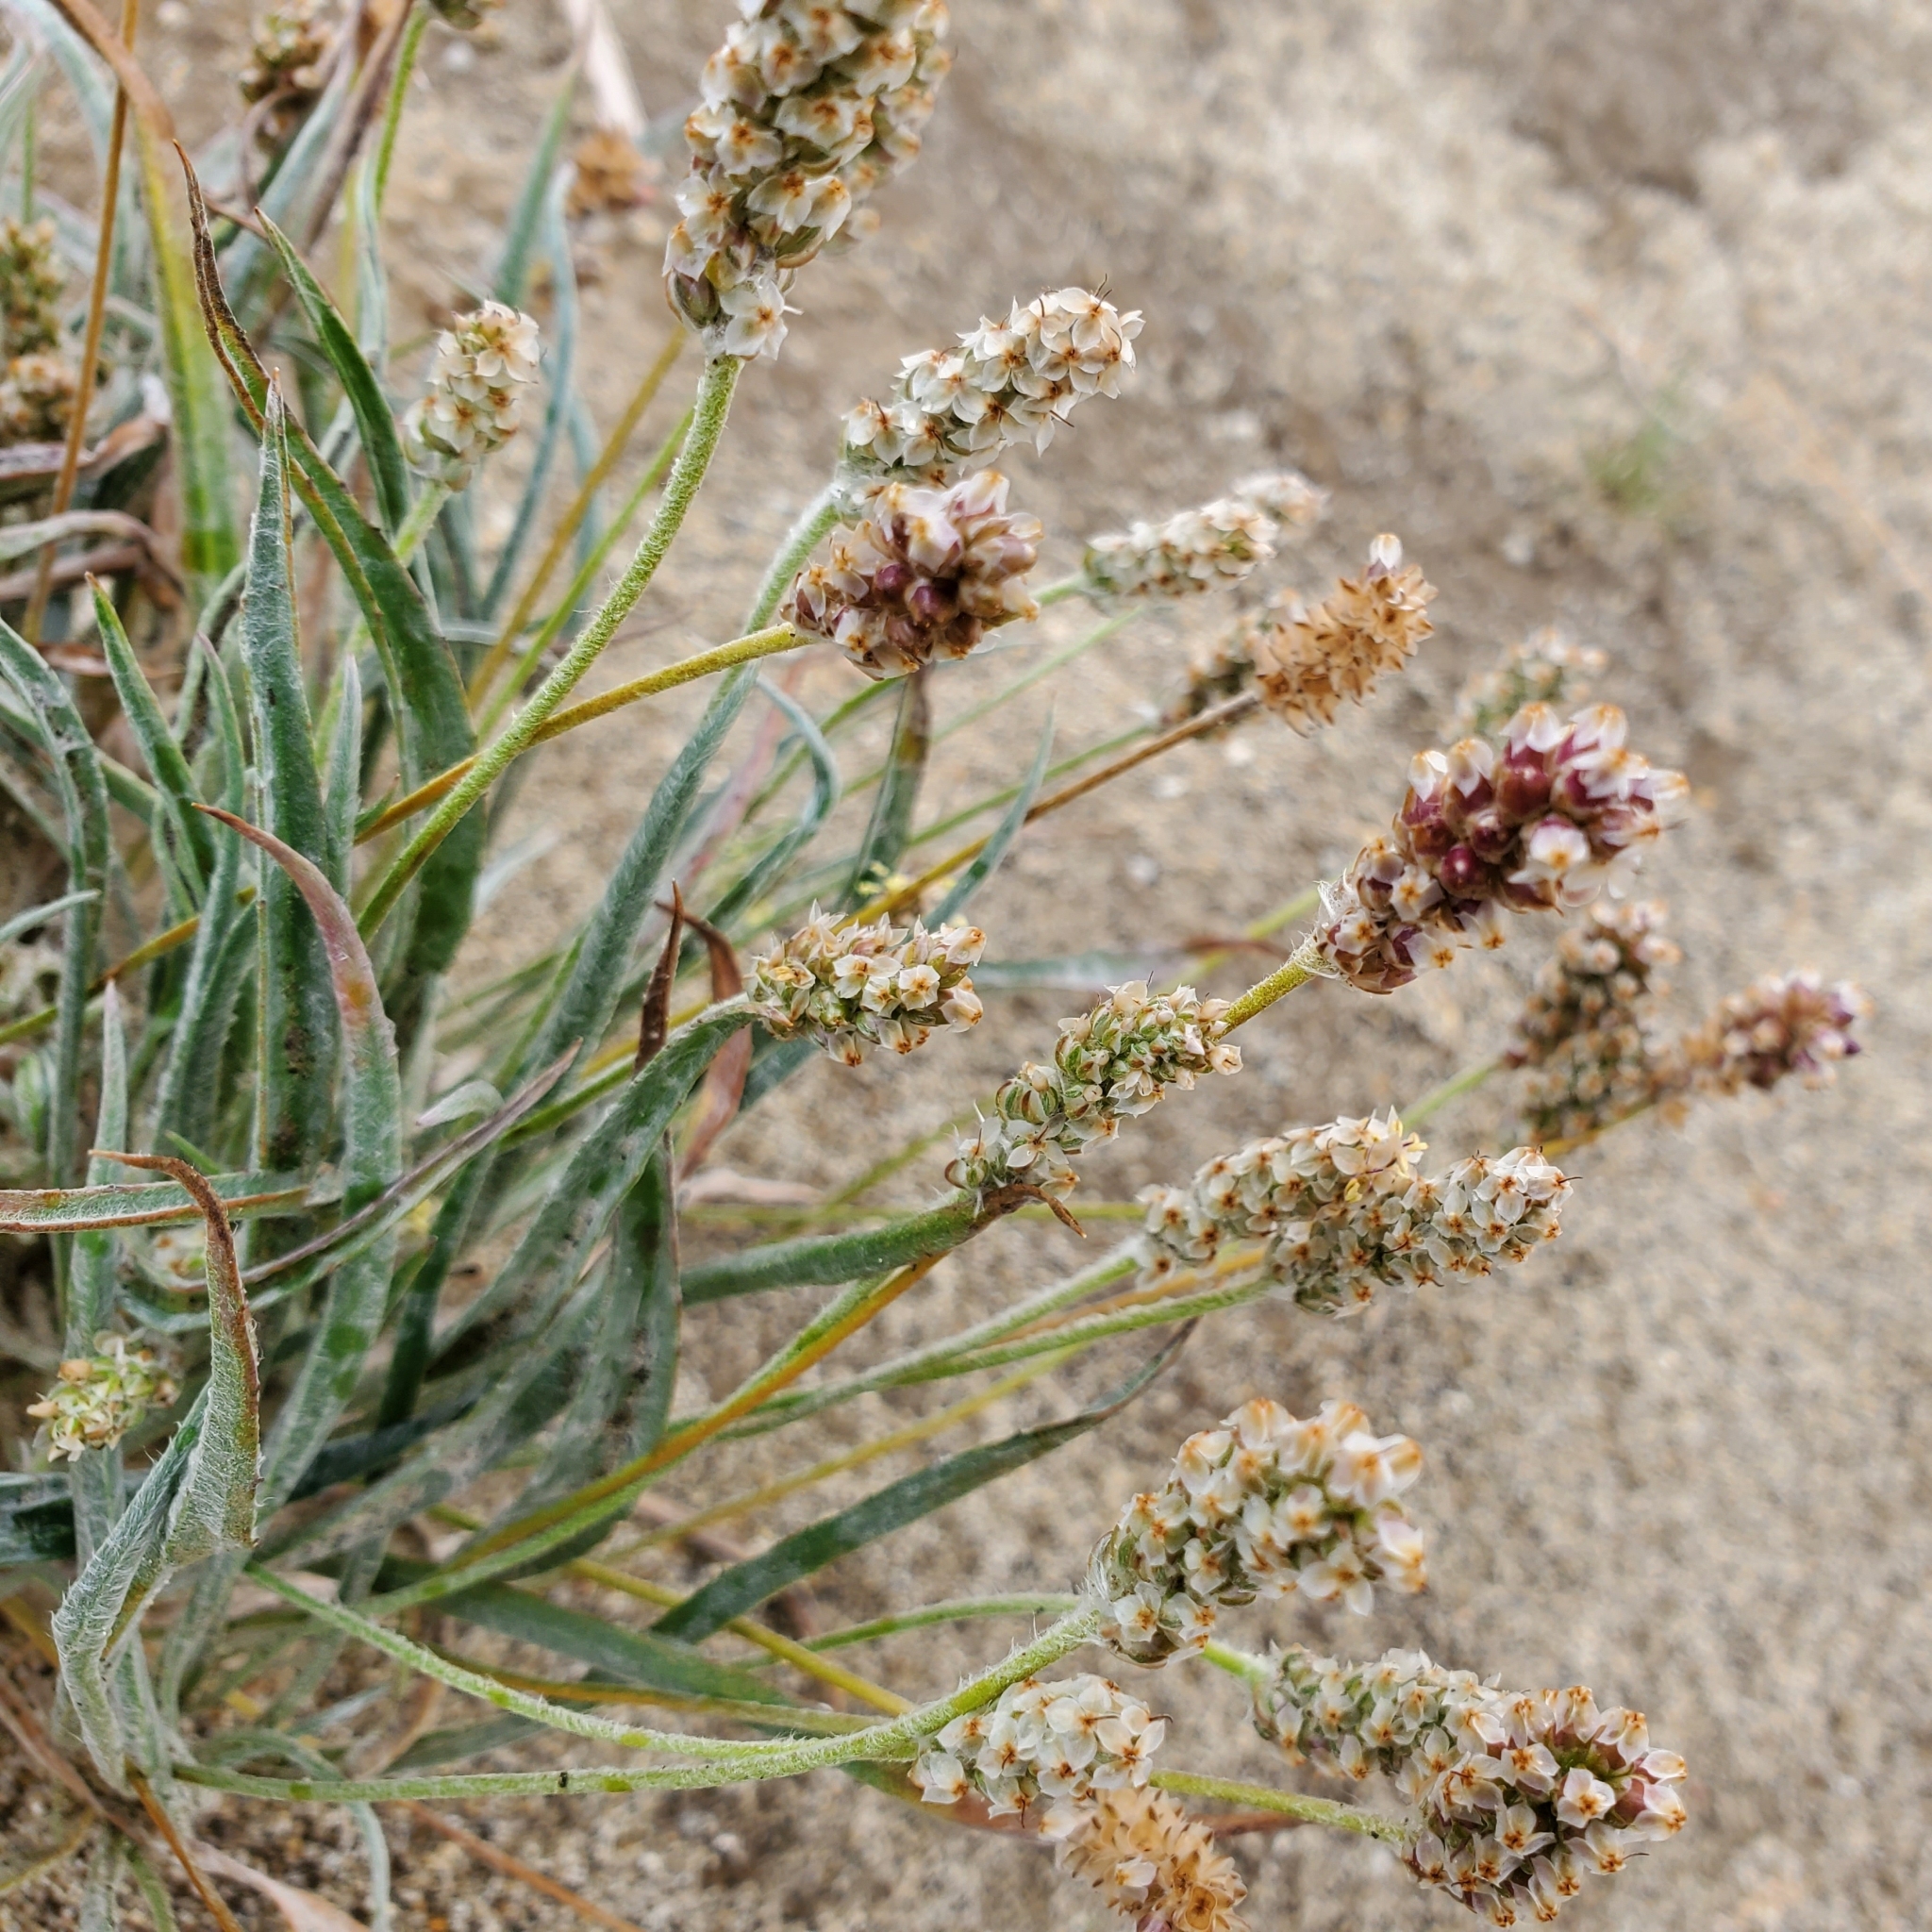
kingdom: Plantae
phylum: Tracheophyta
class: Magnoliopsida
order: Lamiales
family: Plantaginaceae
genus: Plantago
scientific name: Plantago ovata
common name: Blond plantain
